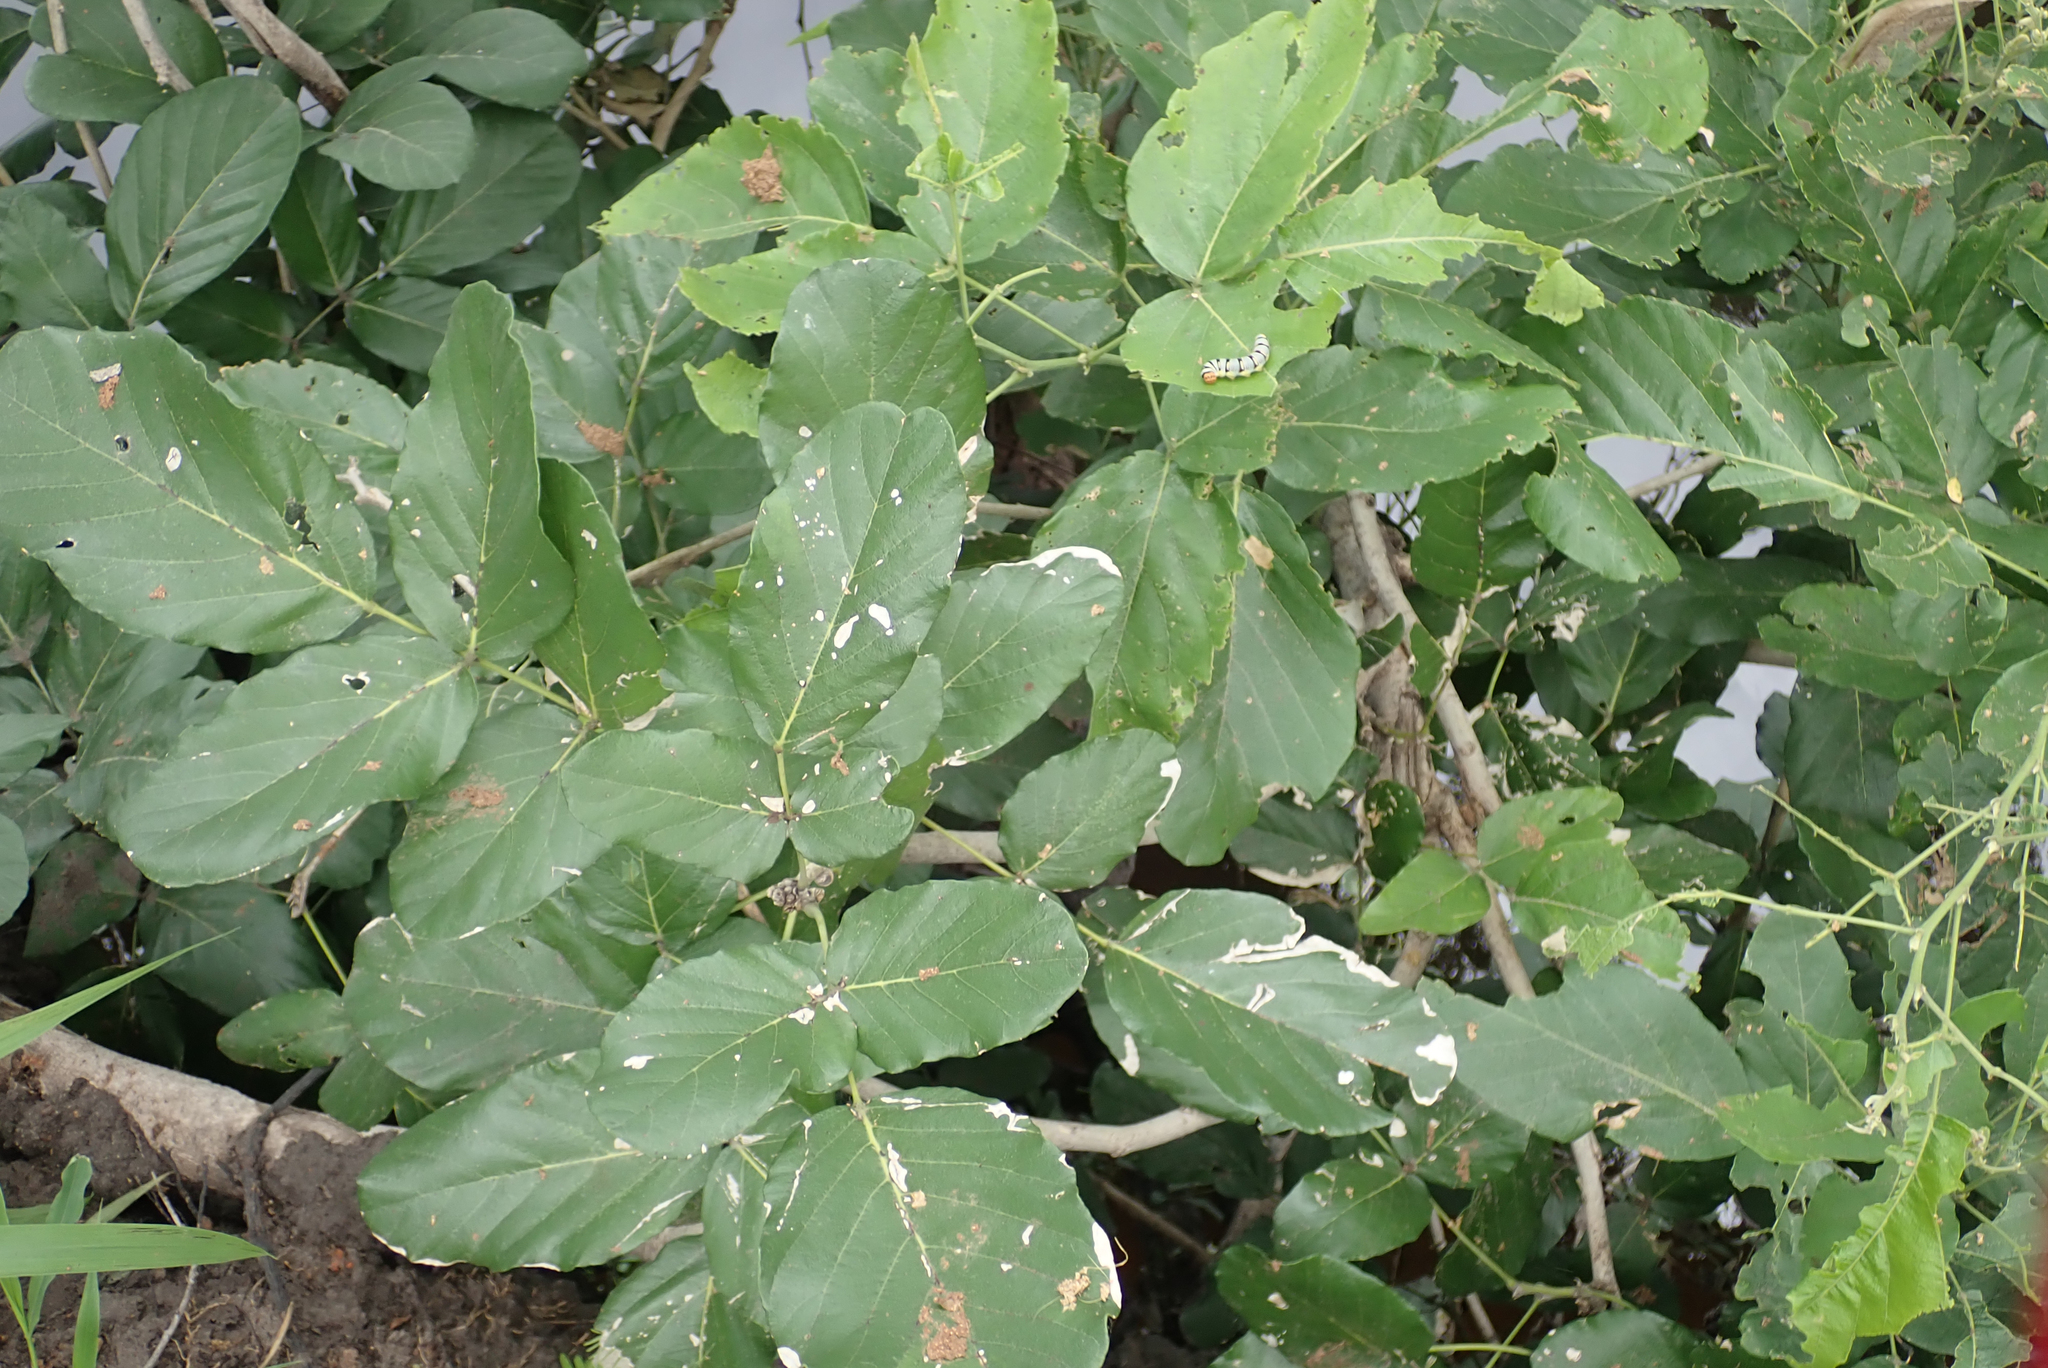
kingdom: Plantae
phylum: Tracheophyta
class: Magnoliopsida
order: Fabales
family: Fabaceae
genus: Philenoptera
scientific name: Philenoptera violacea
